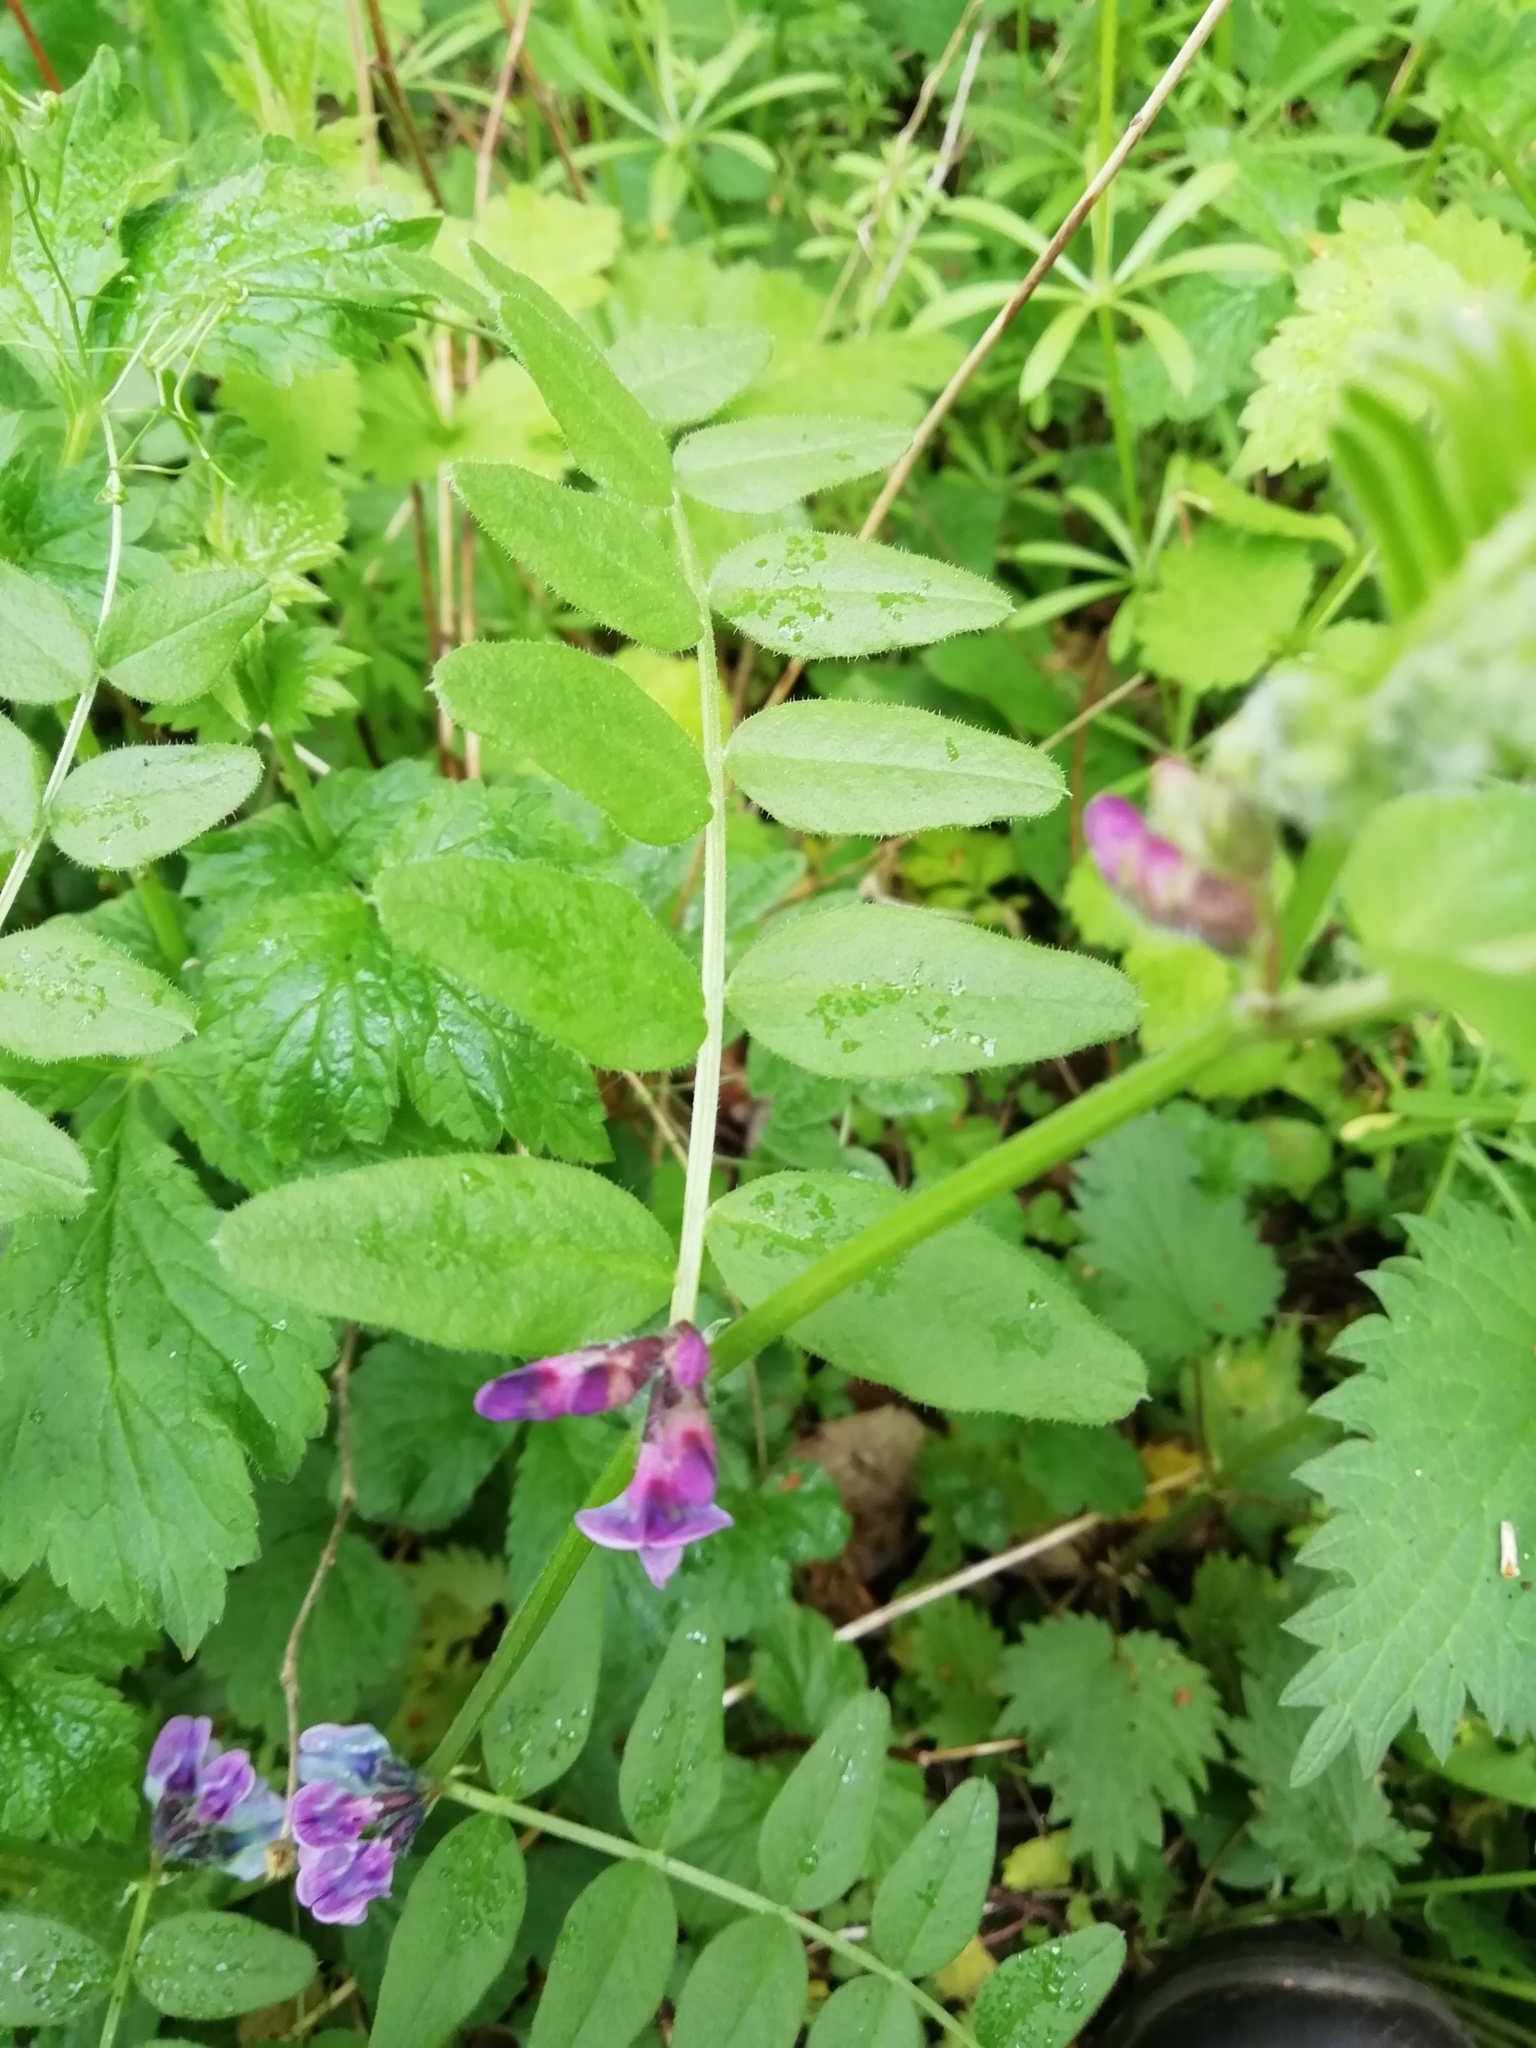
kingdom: Plantae
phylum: Tracheophyta
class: Magnoliopsida
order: Fabales
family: Fabaceae
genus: Vicia
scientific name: Vicia sepium
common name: Bush vetch
